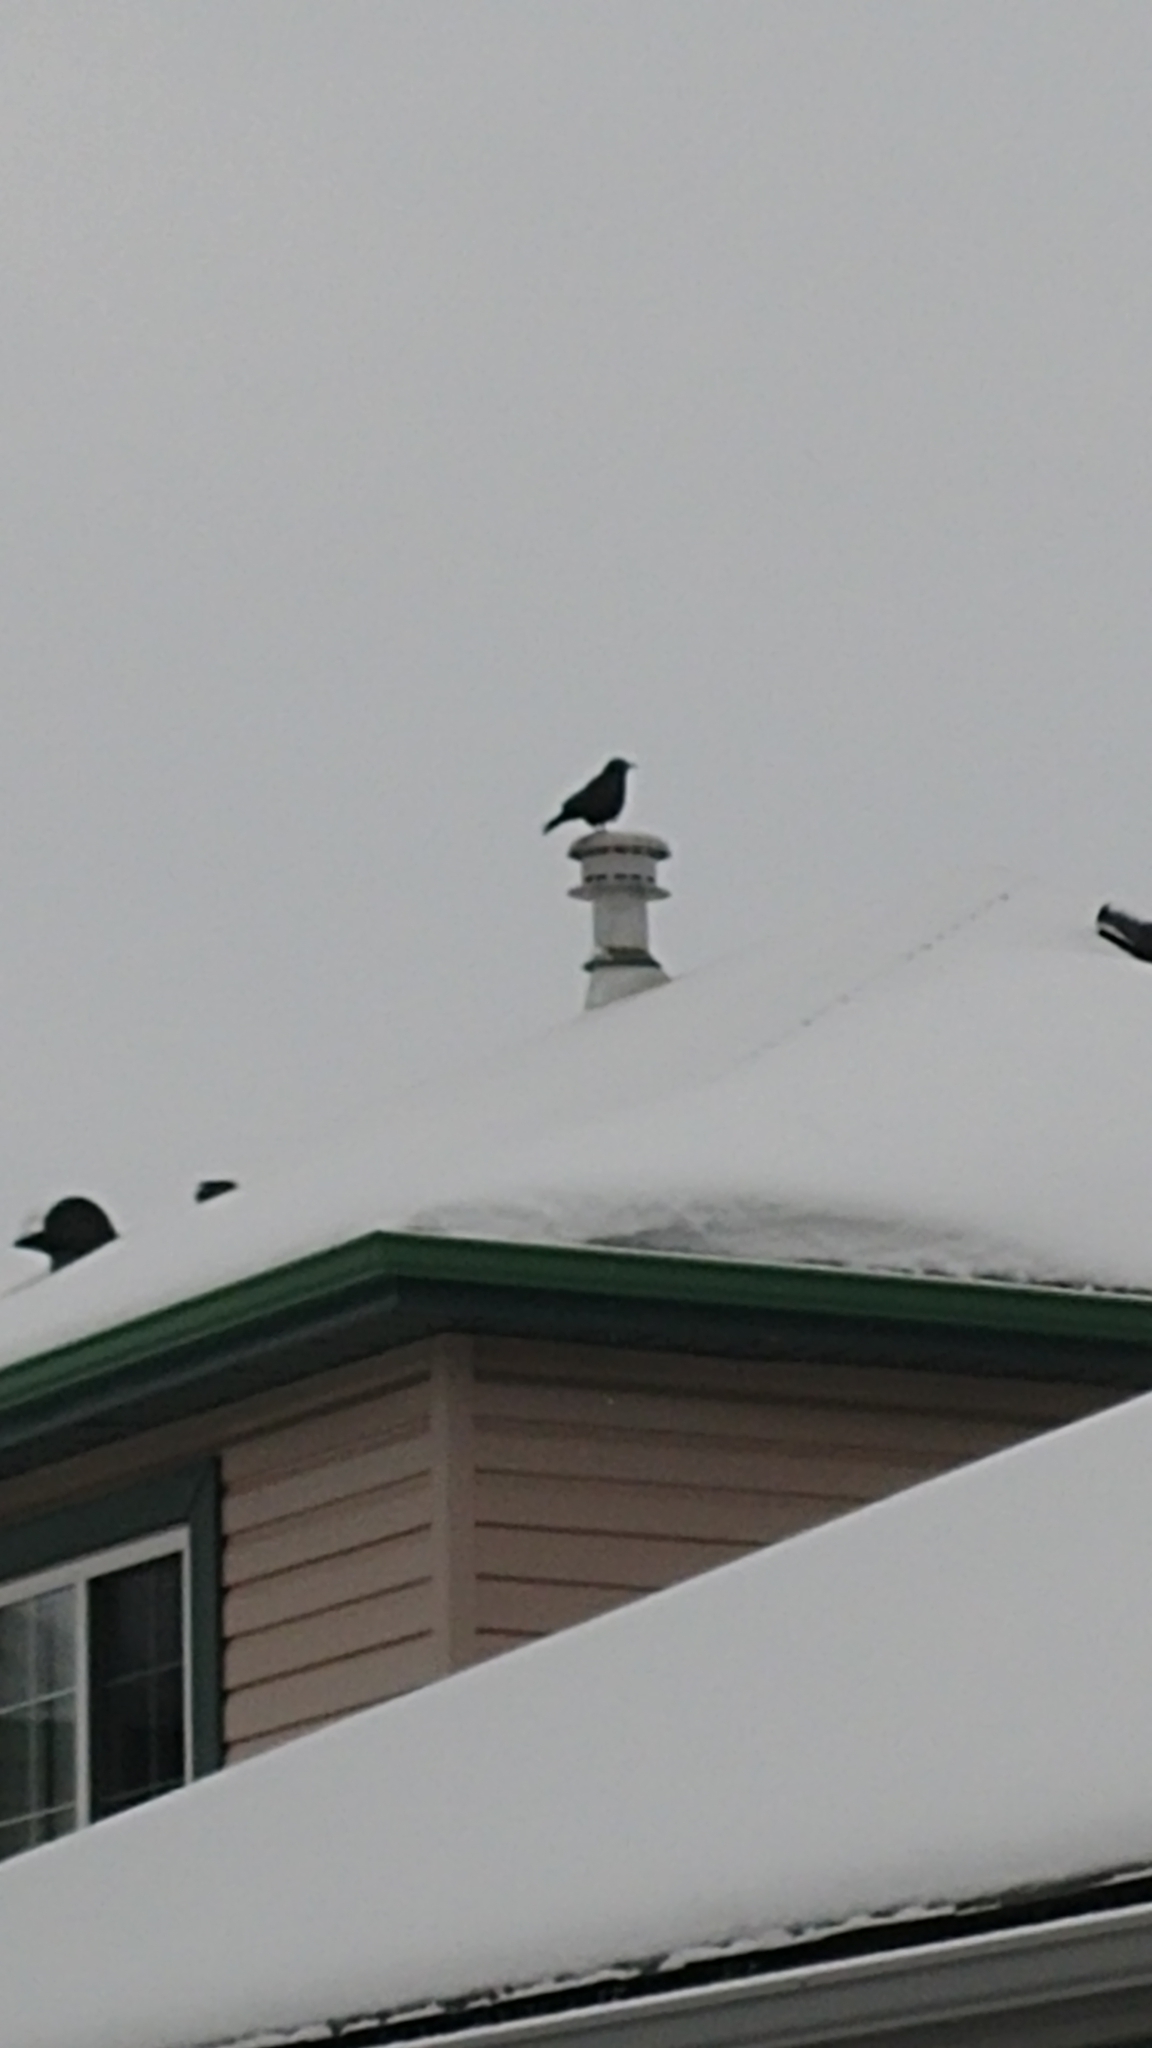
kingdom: Animalia
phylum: Chordata
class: Aves
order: Passeriformes
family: Corvidae
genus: Corvus
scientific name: Corvus brachyrhynchos
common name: American crow
